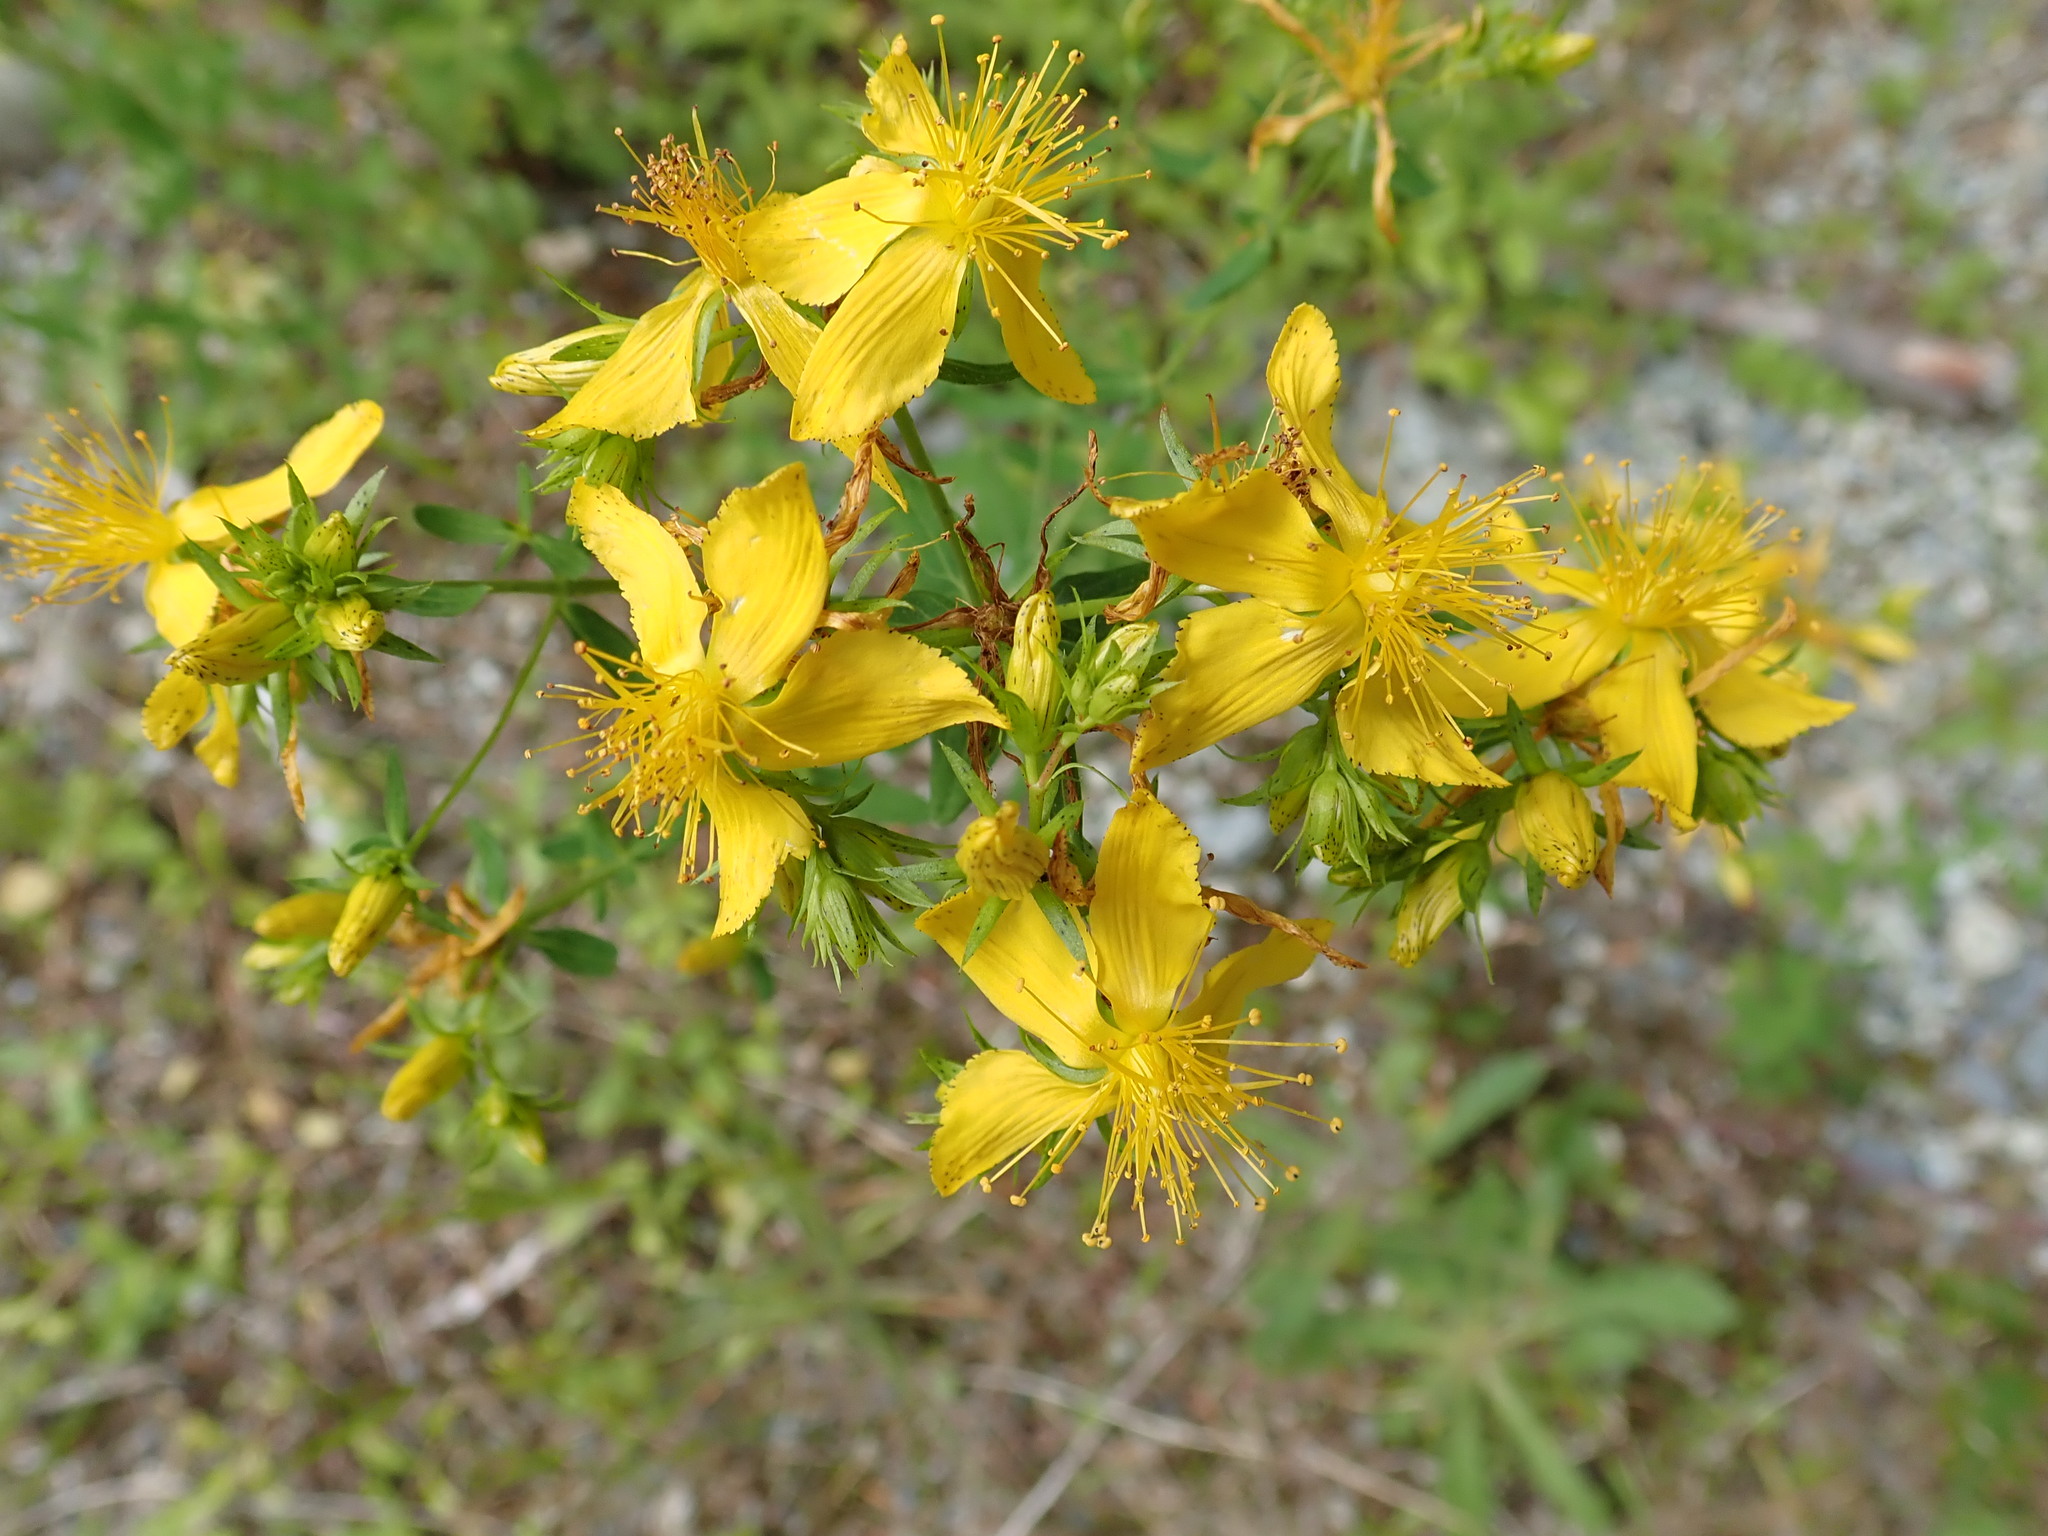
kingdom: Plantae
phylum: Tracheophyta
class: Magnoliopsida
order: Malpighiales
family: Hypericaceae
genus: Hypericum
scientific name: Hypericum perforatum
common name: Common st. johnswort
